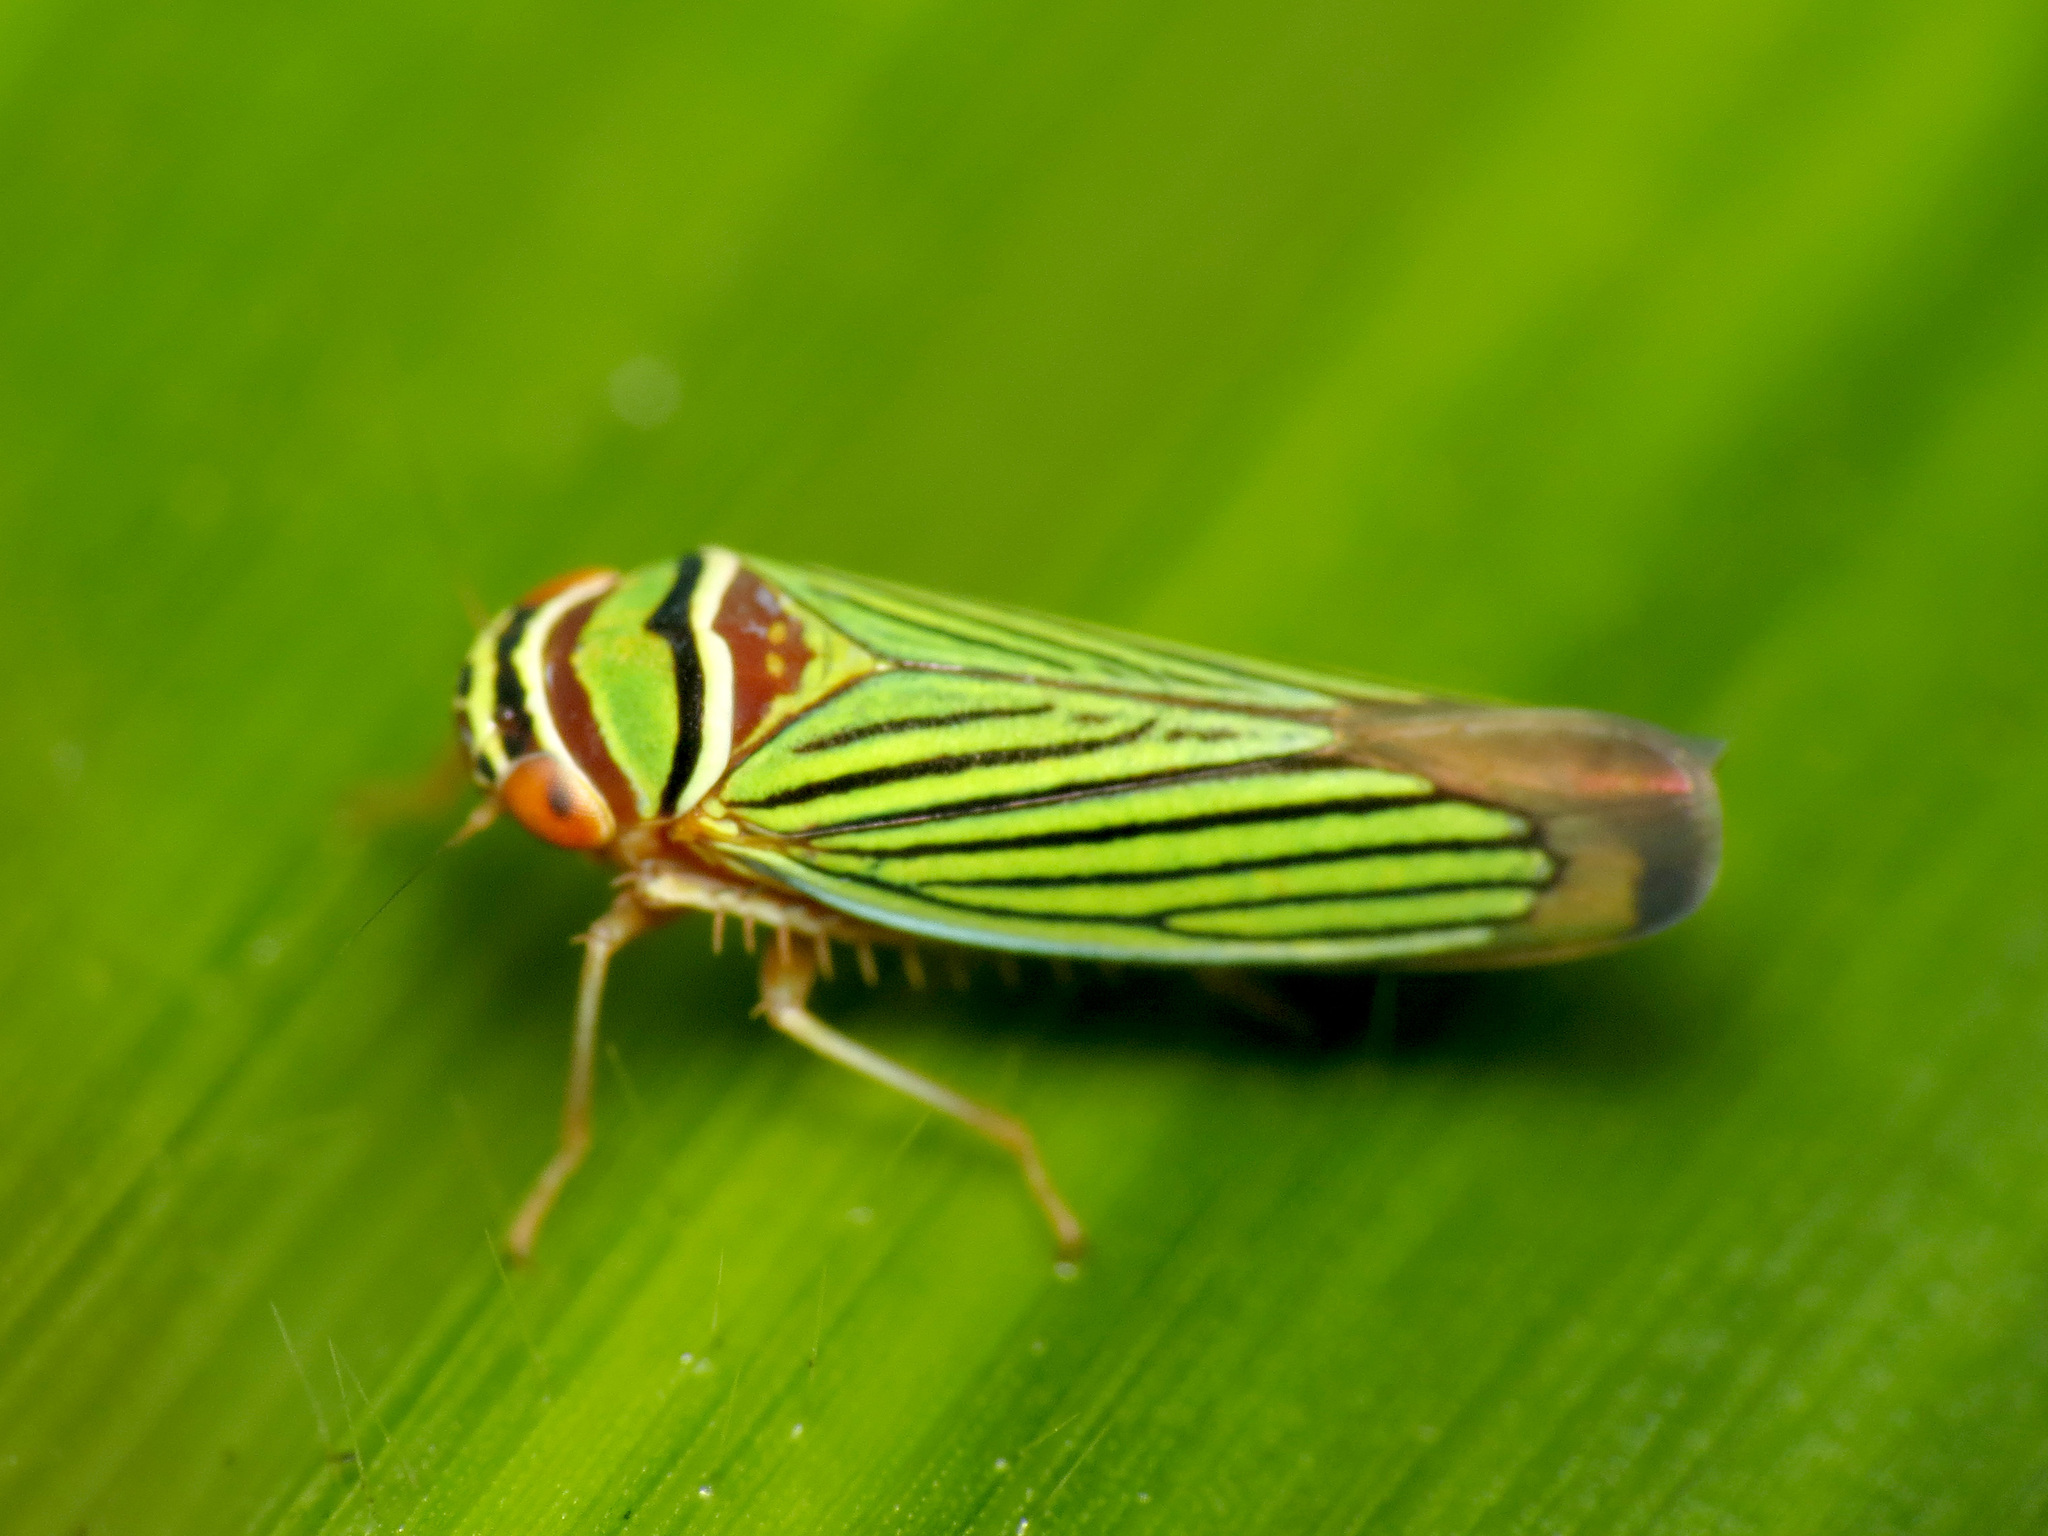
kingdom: Animalia
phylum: Arthropoda
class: Insecta
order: Hemiptera
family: Cicadellidae
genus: Tylozygus
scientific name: Tylozygus fuscolineellus
